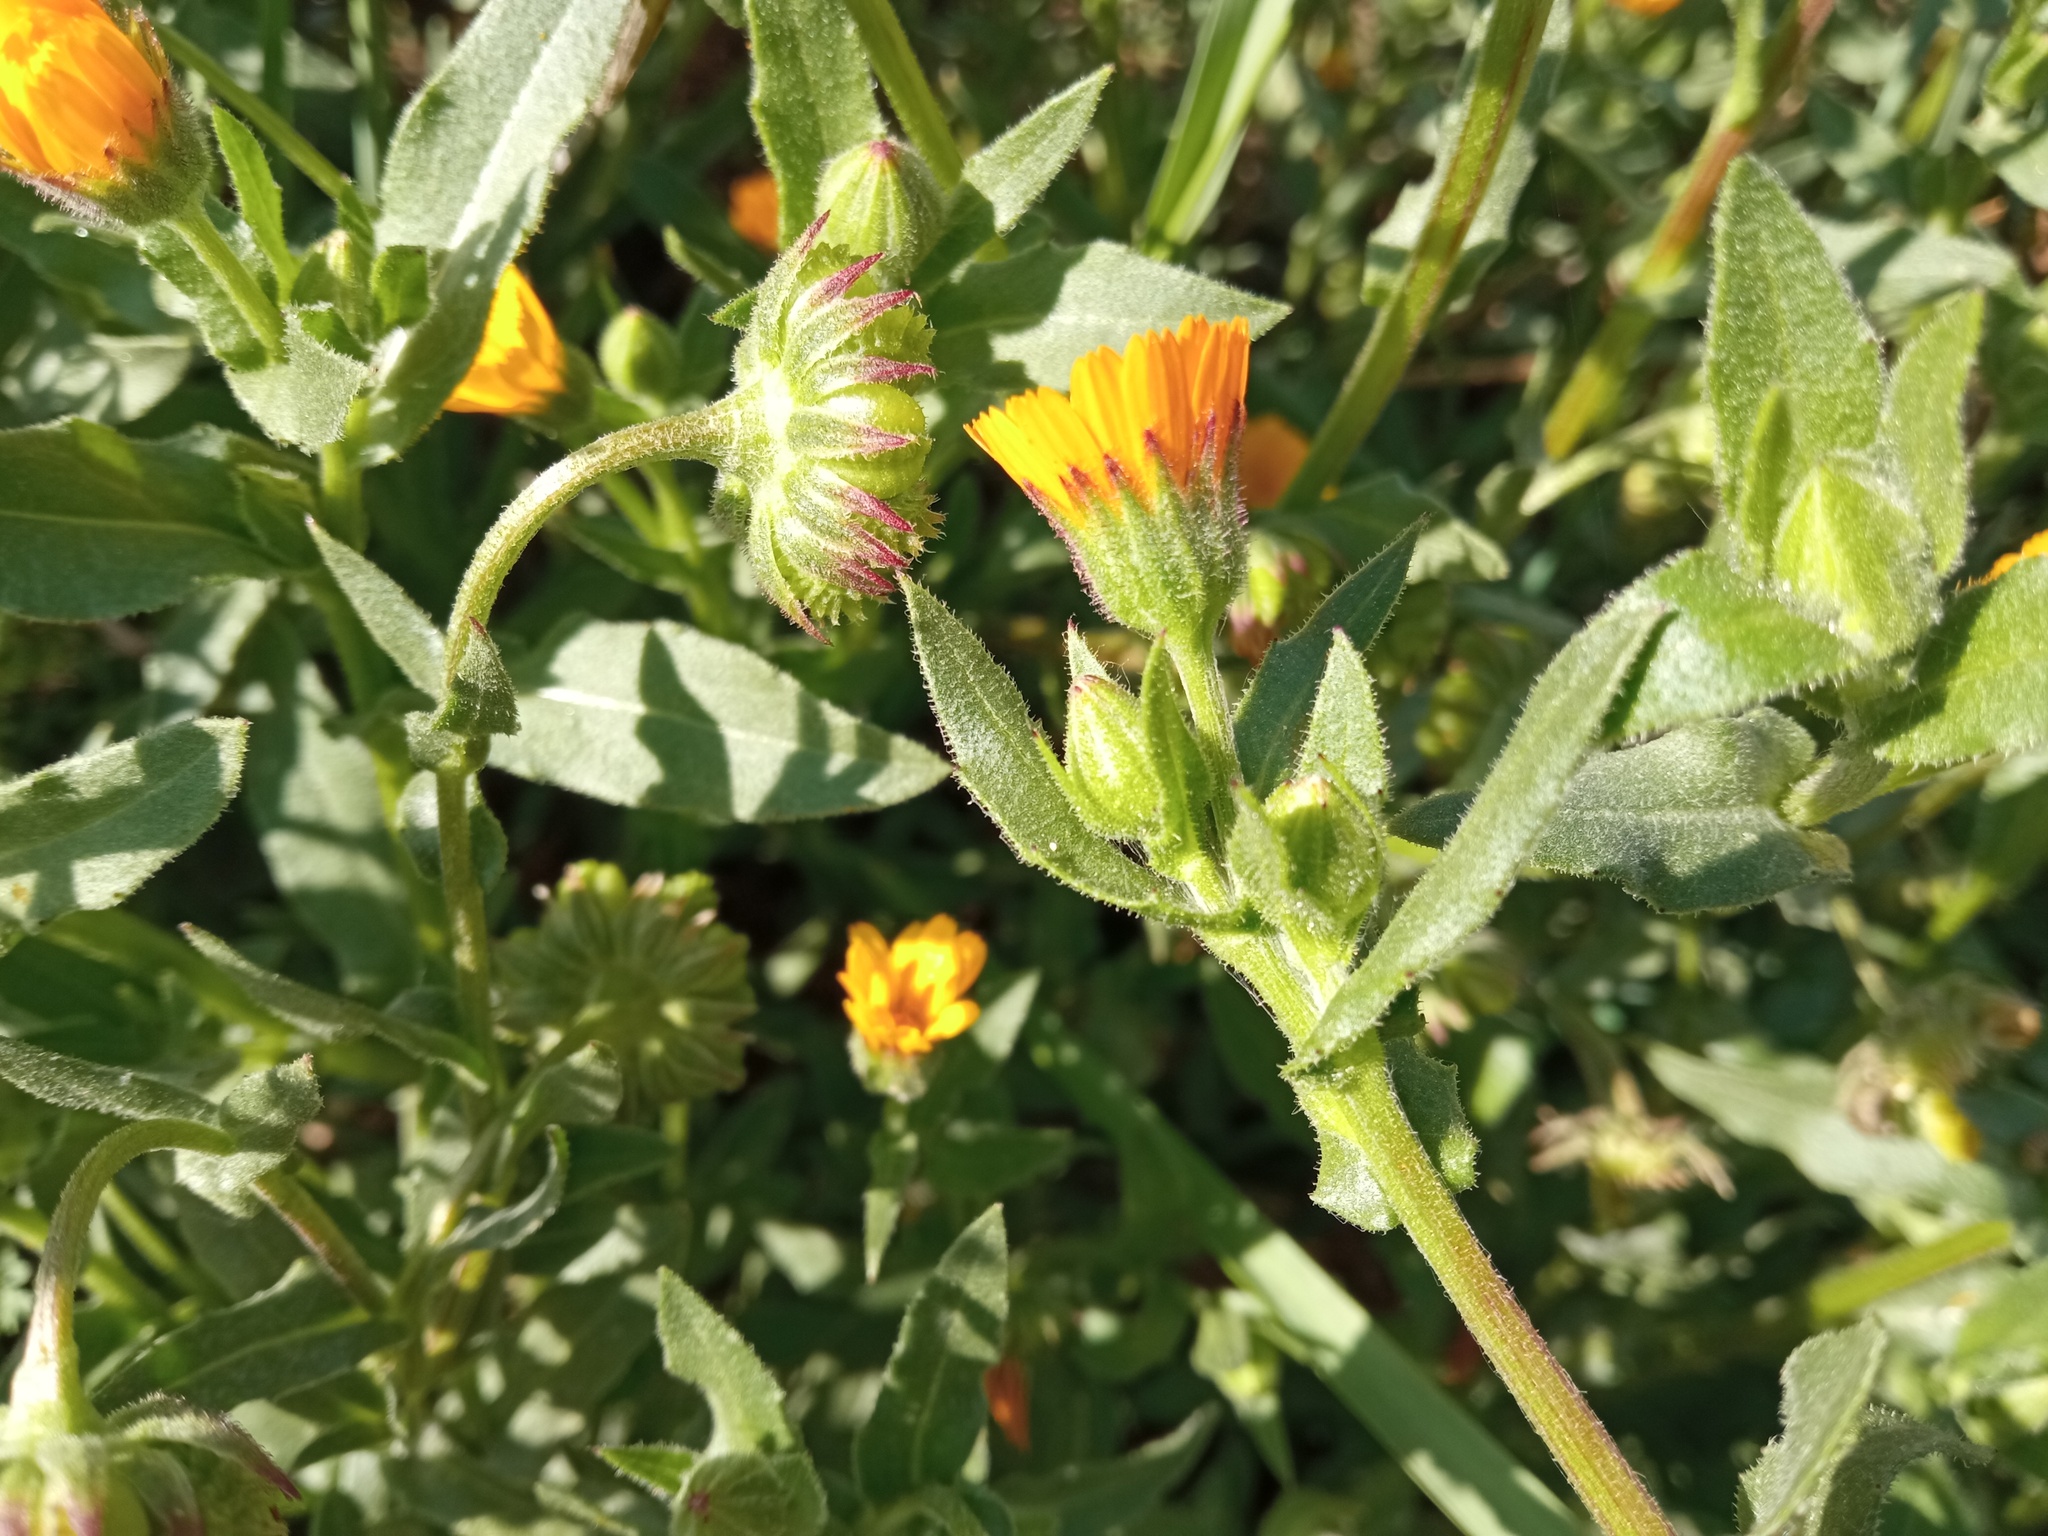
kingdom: Plantae
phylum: Tracheophyta
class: Magnoliopsida
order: Asterales
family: Asteraceae
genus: Calendula
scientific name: Calendula arvensis
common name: Field marigold
